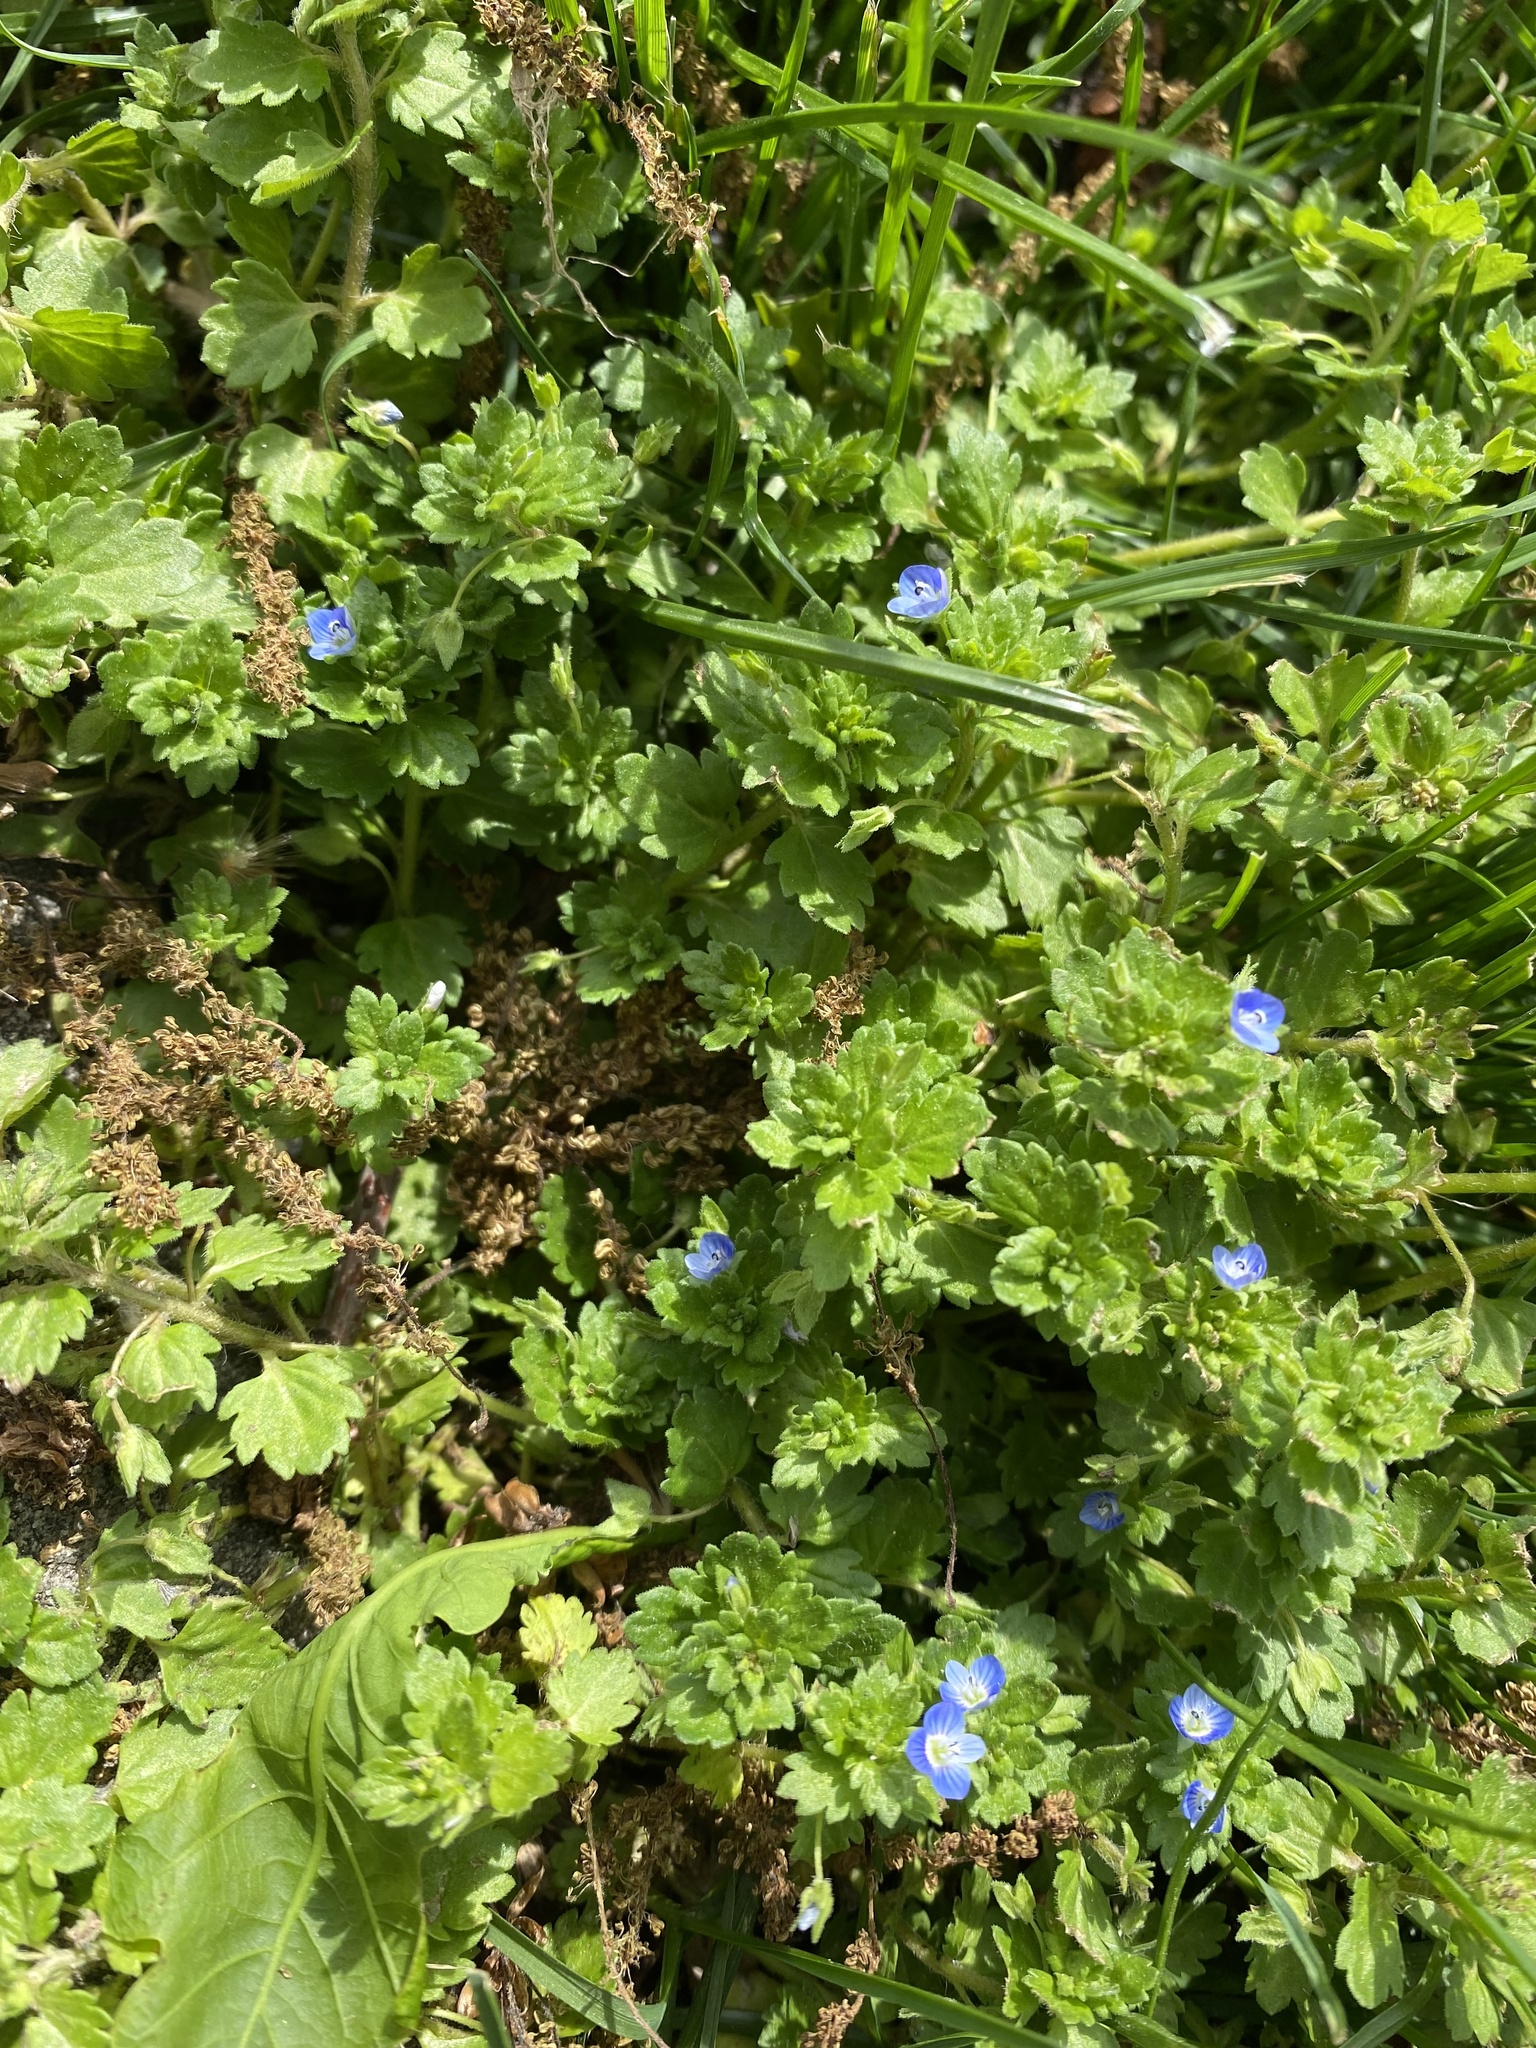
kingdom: Plantae
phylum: Tracheophyta
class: Magnoliopsida
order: Lamiales
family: Plantaginaceae
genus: Veronica
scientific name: Veronica polita
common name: Grey field-speedwell
